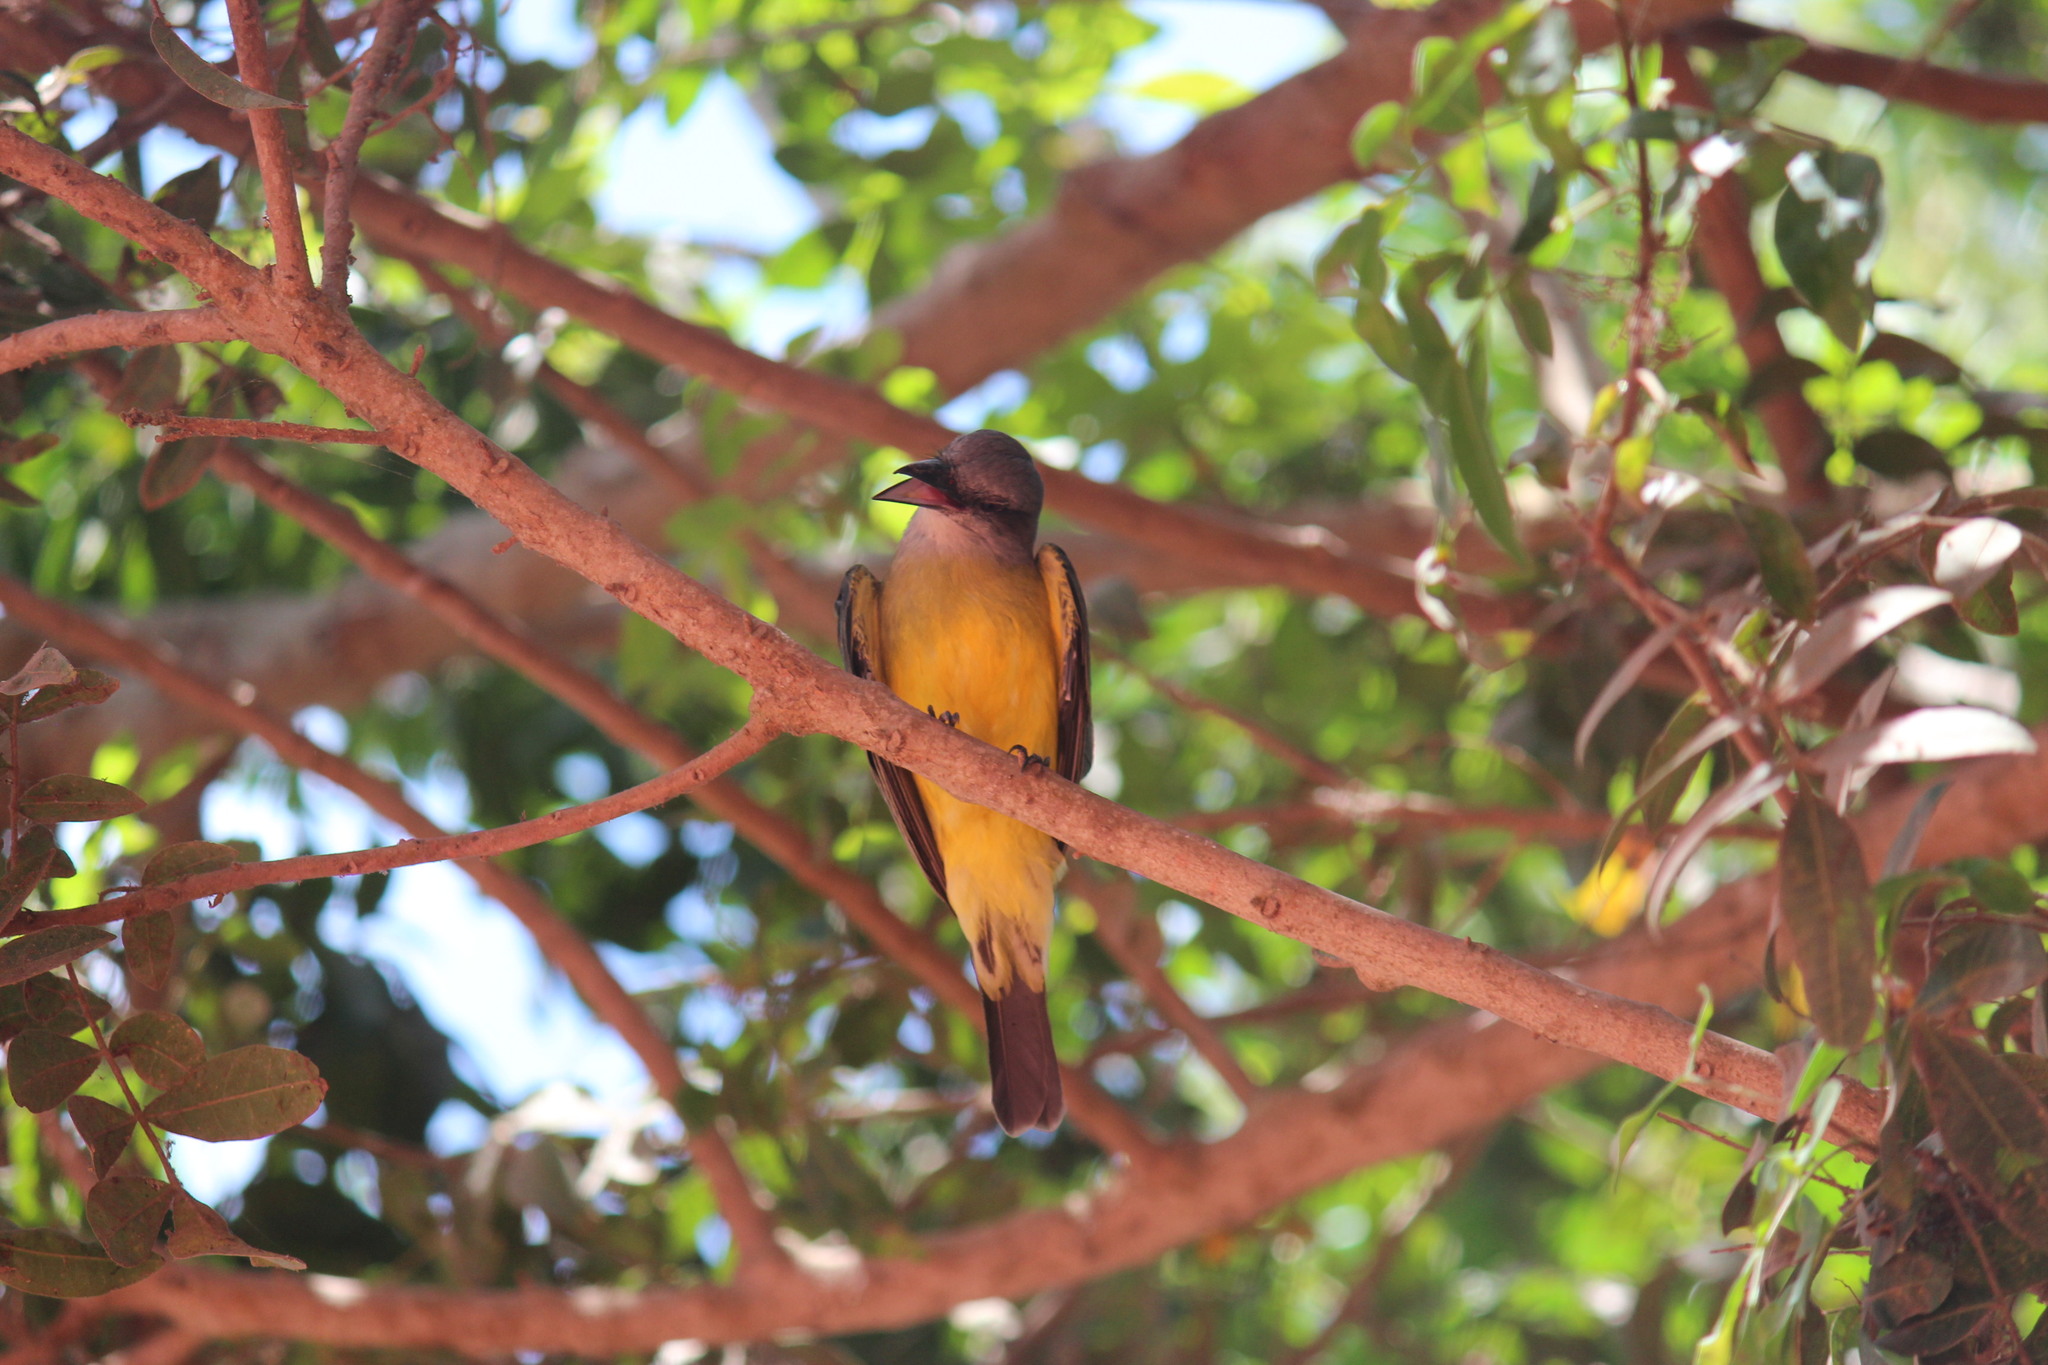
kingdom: Animalia
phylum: Chordata
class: Aves
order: Passeriformes
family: Tyrannidae
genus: Tyrannus
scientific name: Tyrannus melancholicus
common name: Tropical kingbird
